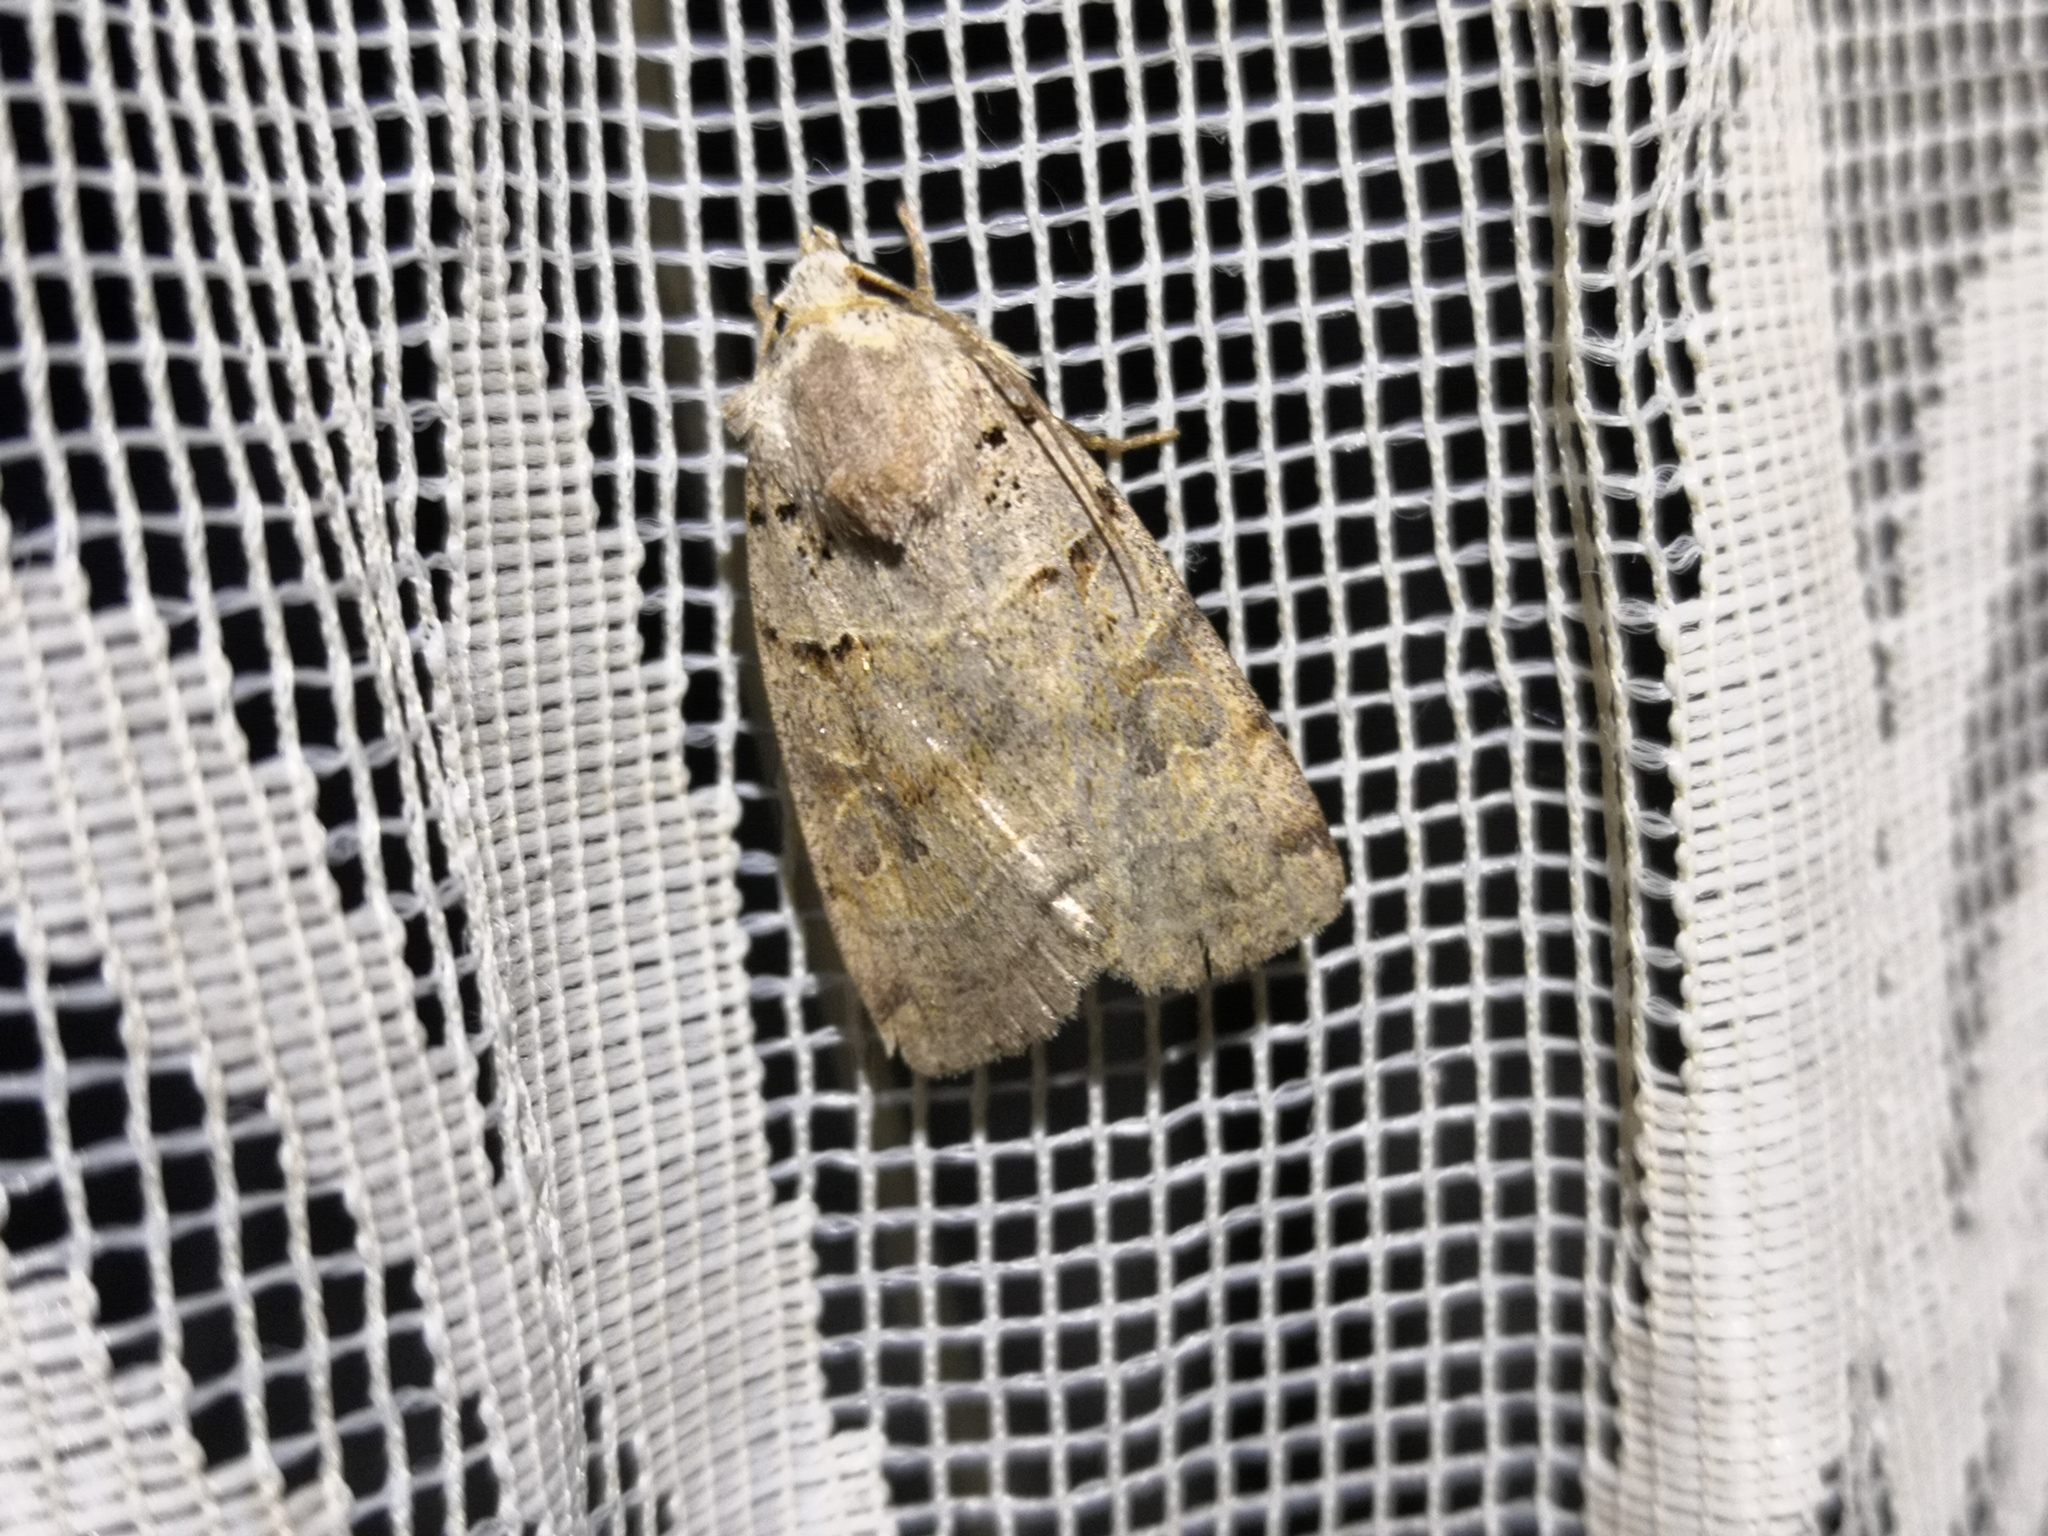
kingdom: Animalia
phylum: Arthropoda
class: Insecta
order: Lepidoptera
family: Noctuidae
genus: Eugnorisma
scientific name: Eugnorisma depuncta
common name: Plain clay
